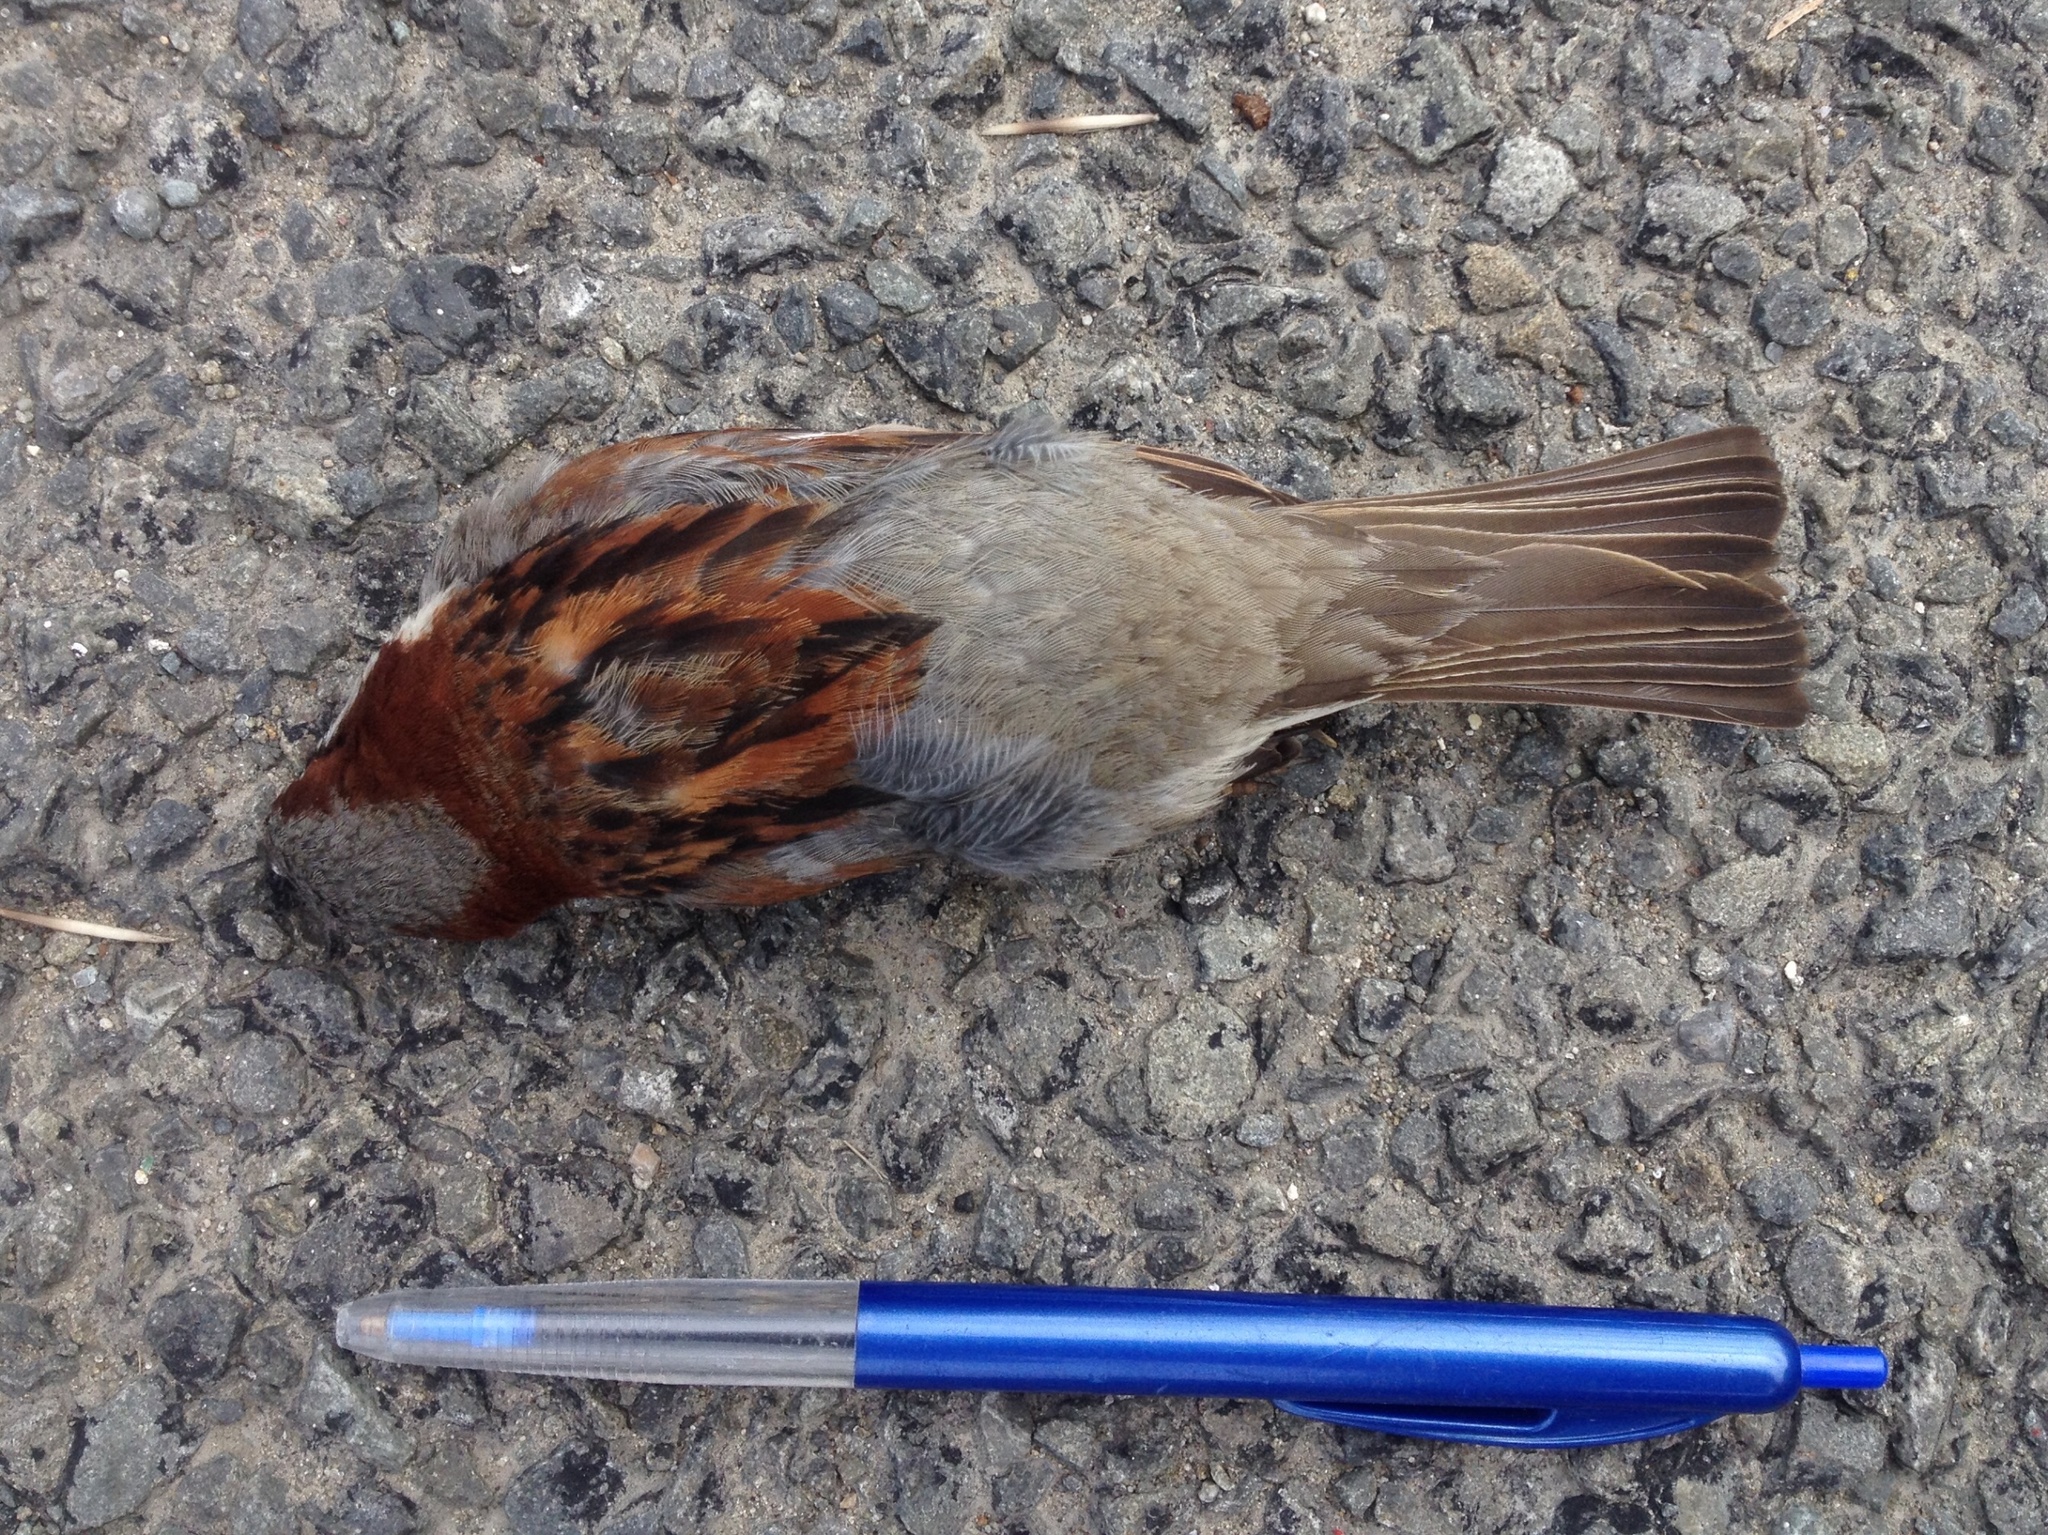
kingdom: Animalia
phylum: Chordata
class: Aves
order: Passeriformes
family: Passeridae
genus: Passer
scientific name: Passer domesticus
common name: House sparrow
